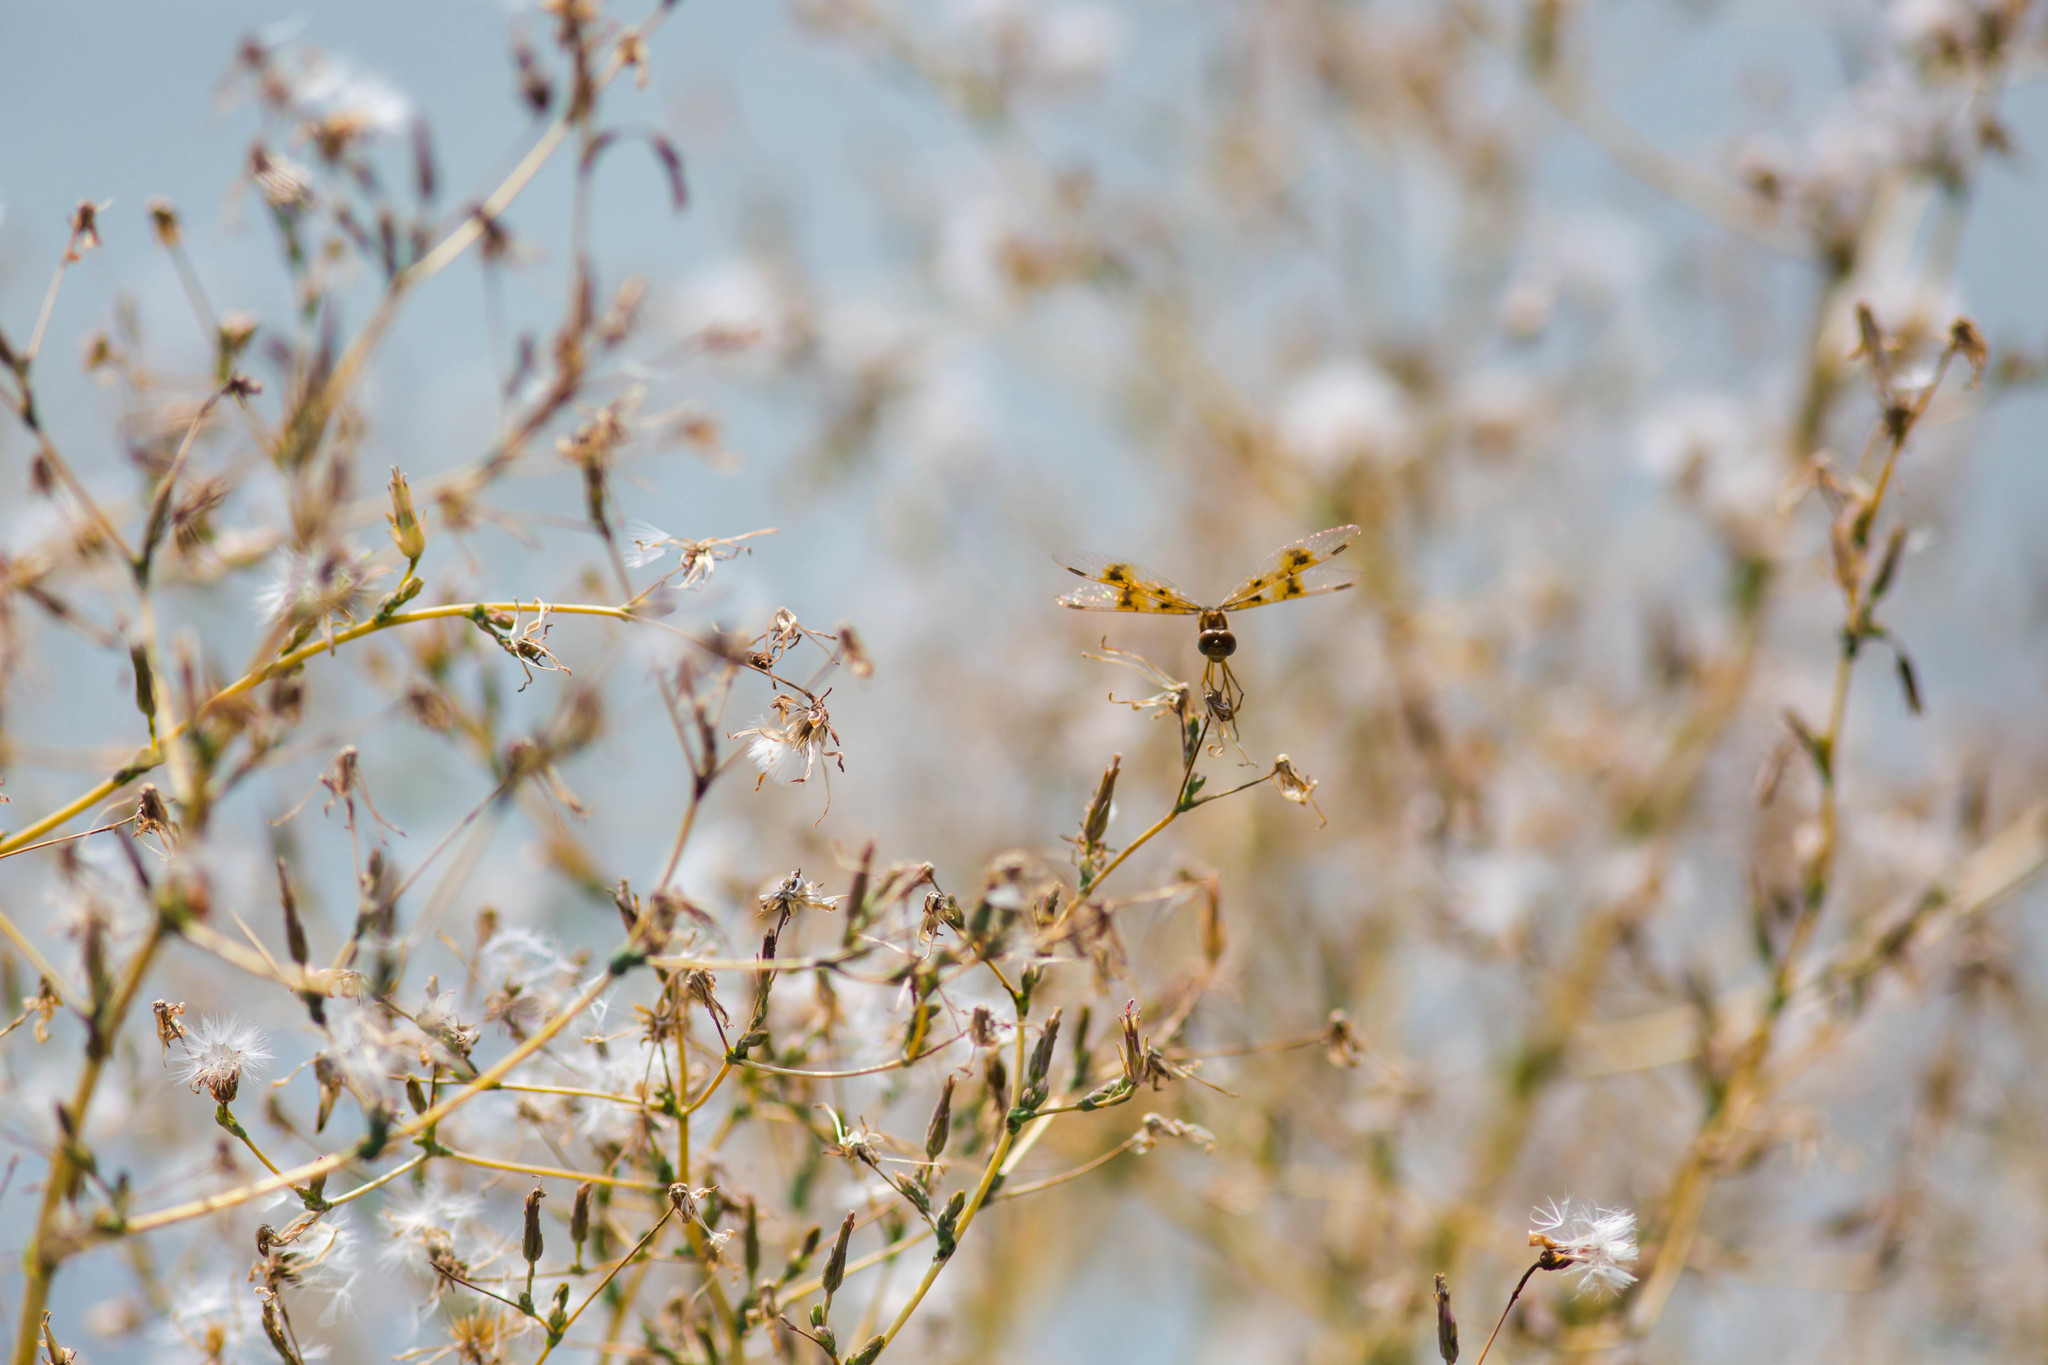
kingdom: Animalia
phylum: Arthropoda
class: Insecta
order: Odonata
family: Libellulidae
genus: Perithemis
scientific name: Perithemis tenera
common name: Eastern amberwing
